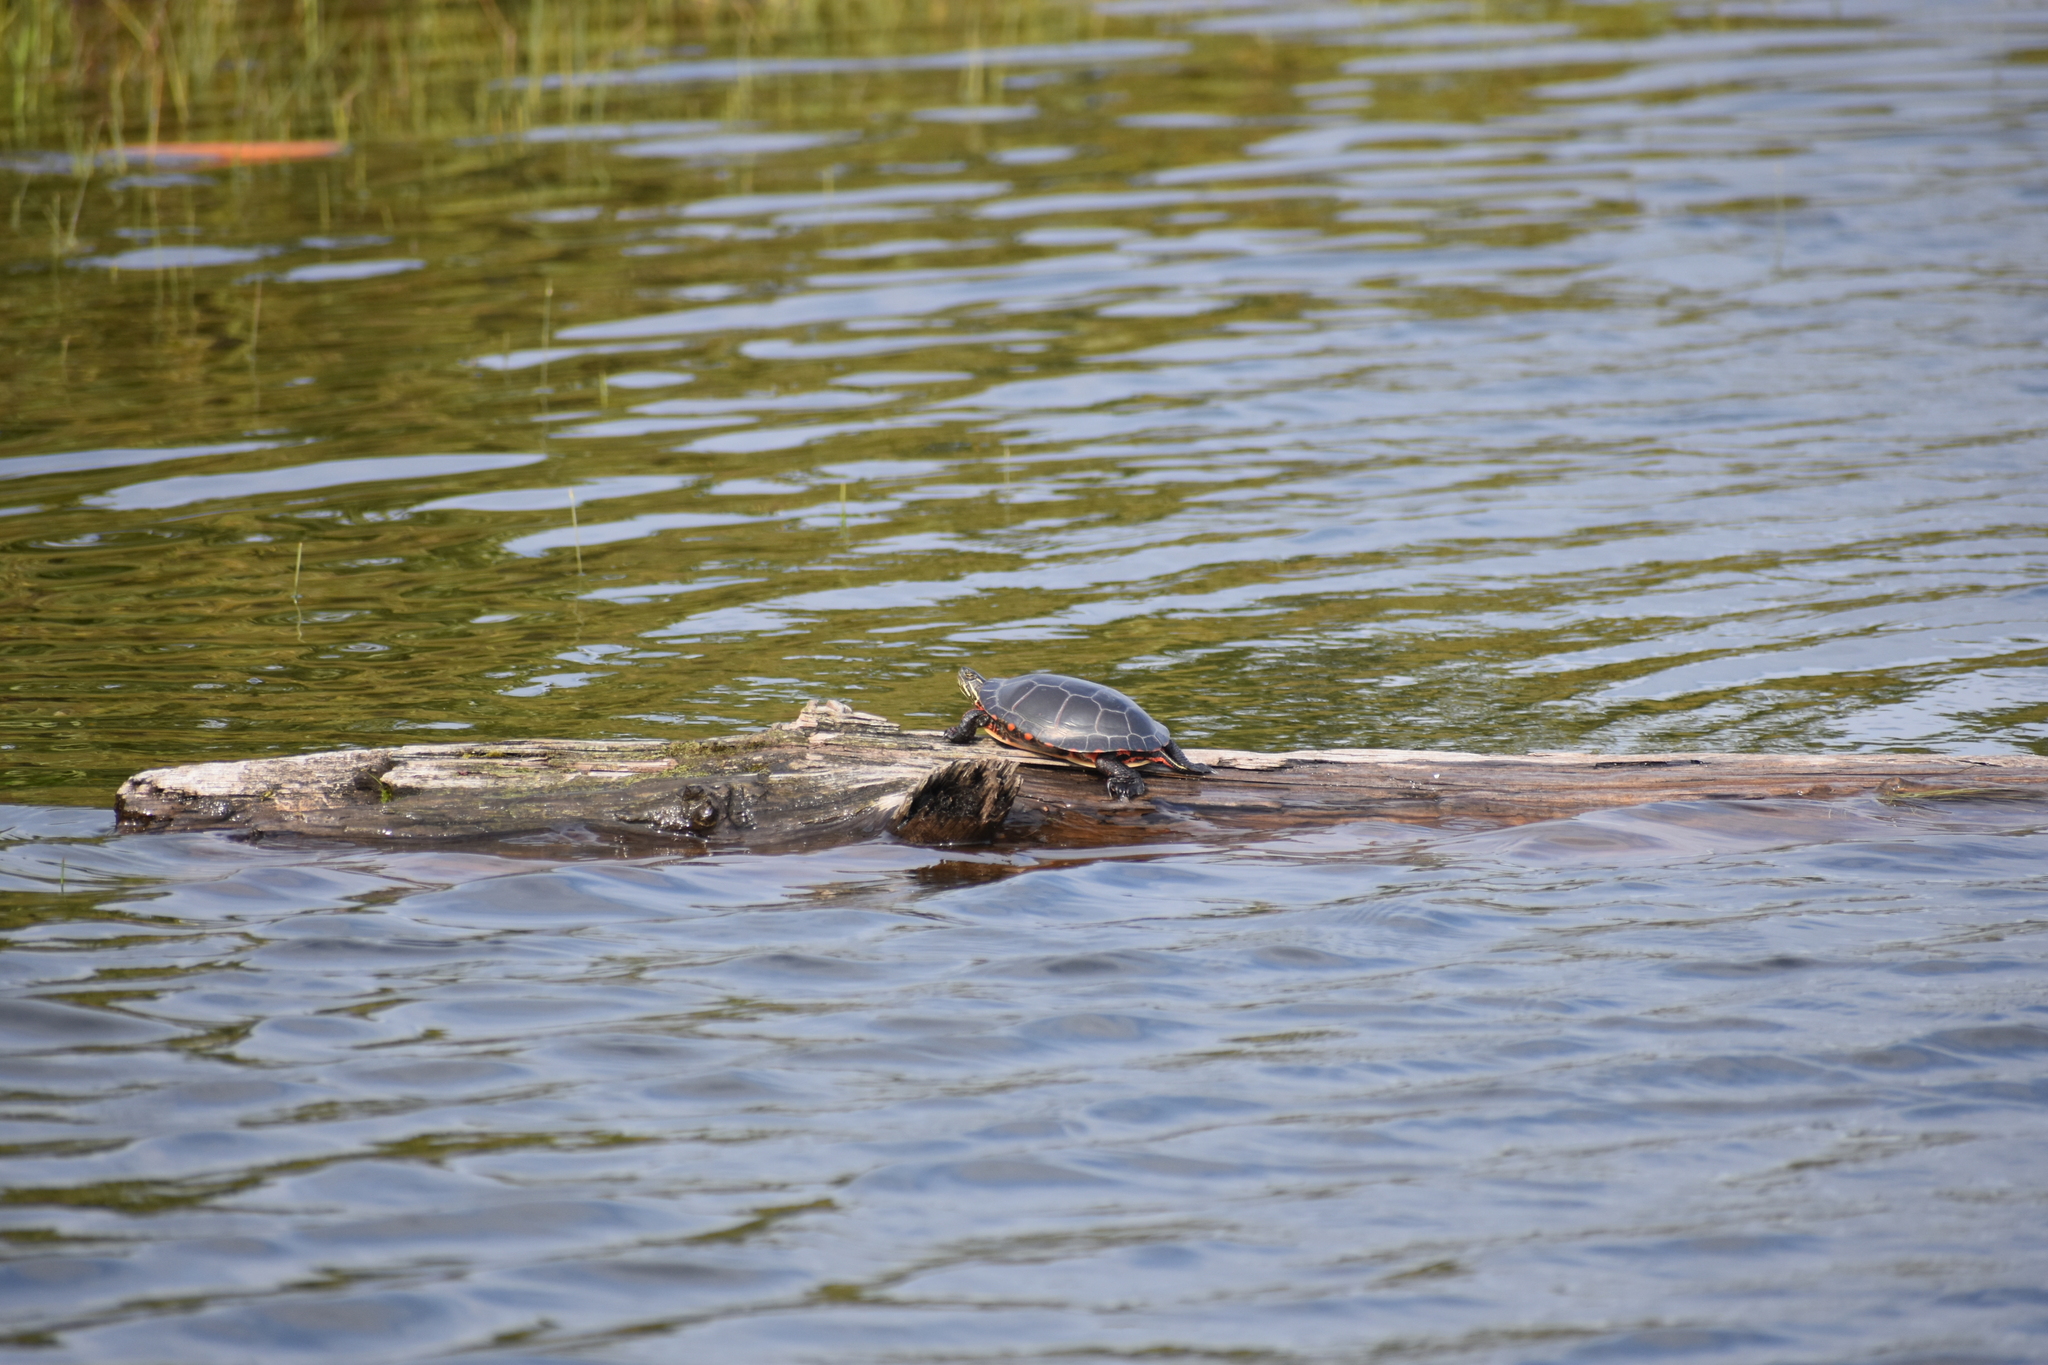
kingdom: Animalia
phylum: Chordata
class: Testudines
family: Emydidae
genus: Chrysemys
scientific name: Chrysemys picta
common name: Painted turtle
